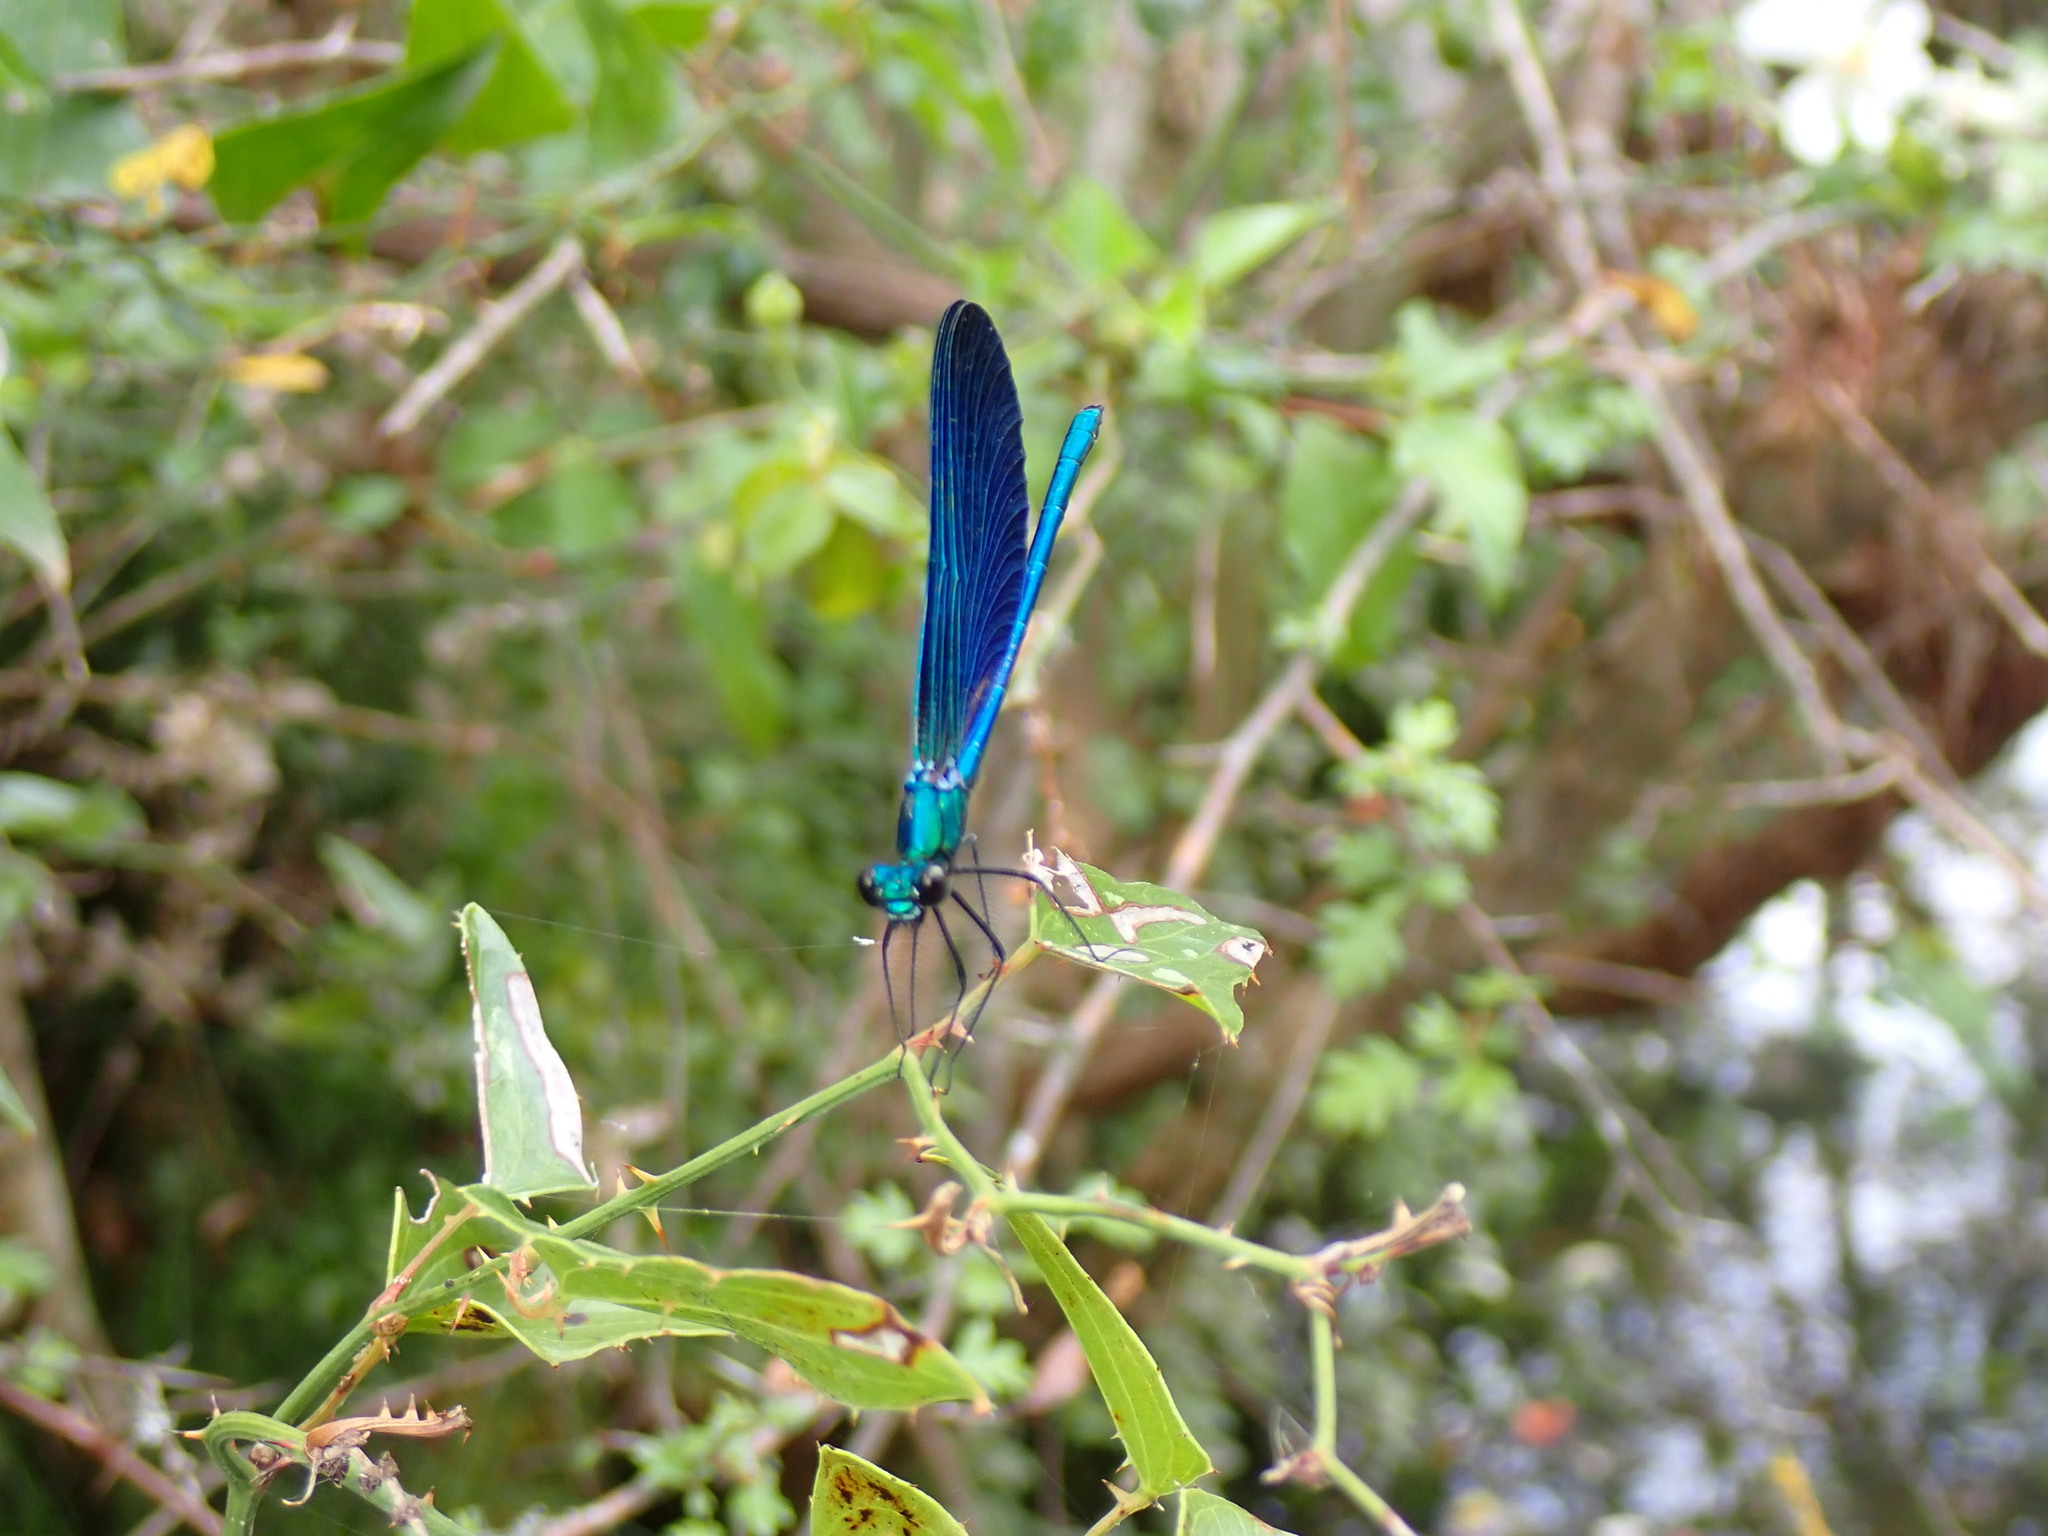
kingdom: Animalia
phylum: Arthropoda
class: Insecta
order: Odonata
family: Calopterygidae
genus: Calopteryx
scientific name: Calopteryx virgo
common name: Beautiful demoiselle
